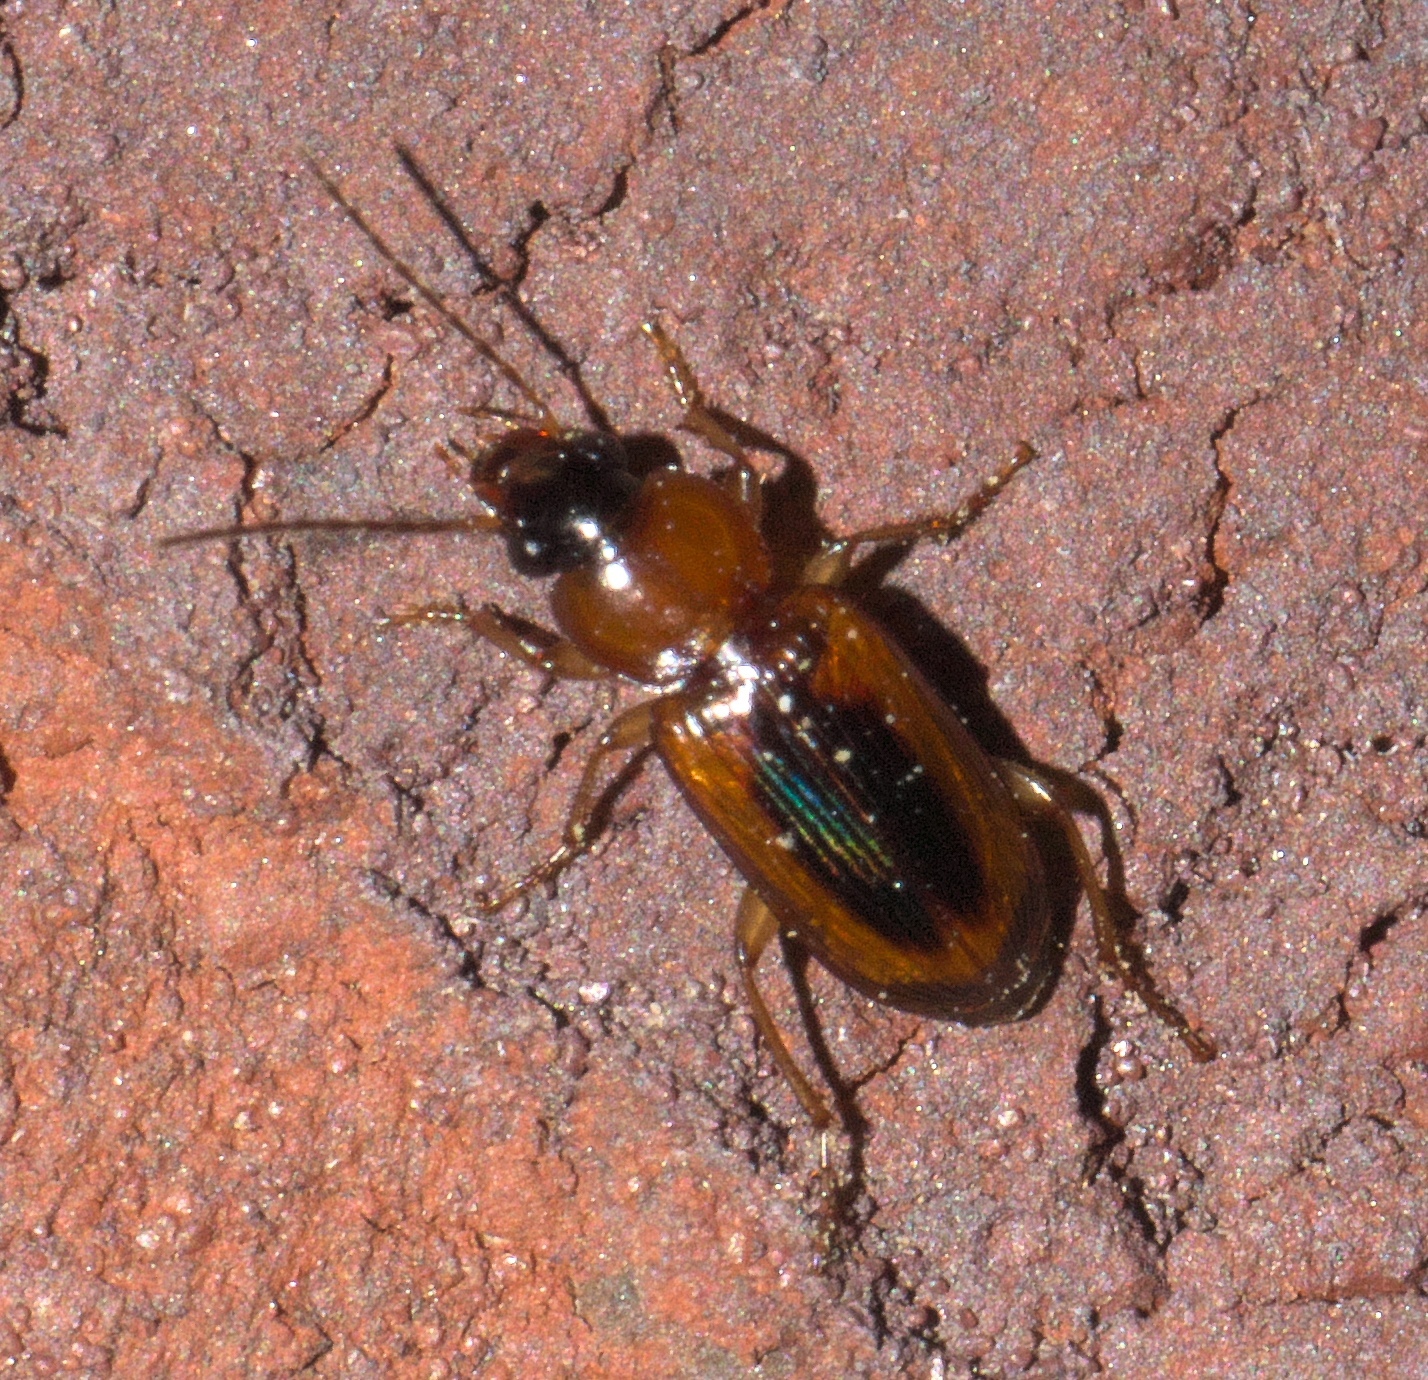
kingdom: Animalia
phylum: Arthropoda
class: Insecta
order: Coleoptera
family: Carabidae
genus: Stenolophus
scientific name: Stenolophus dissimilis
